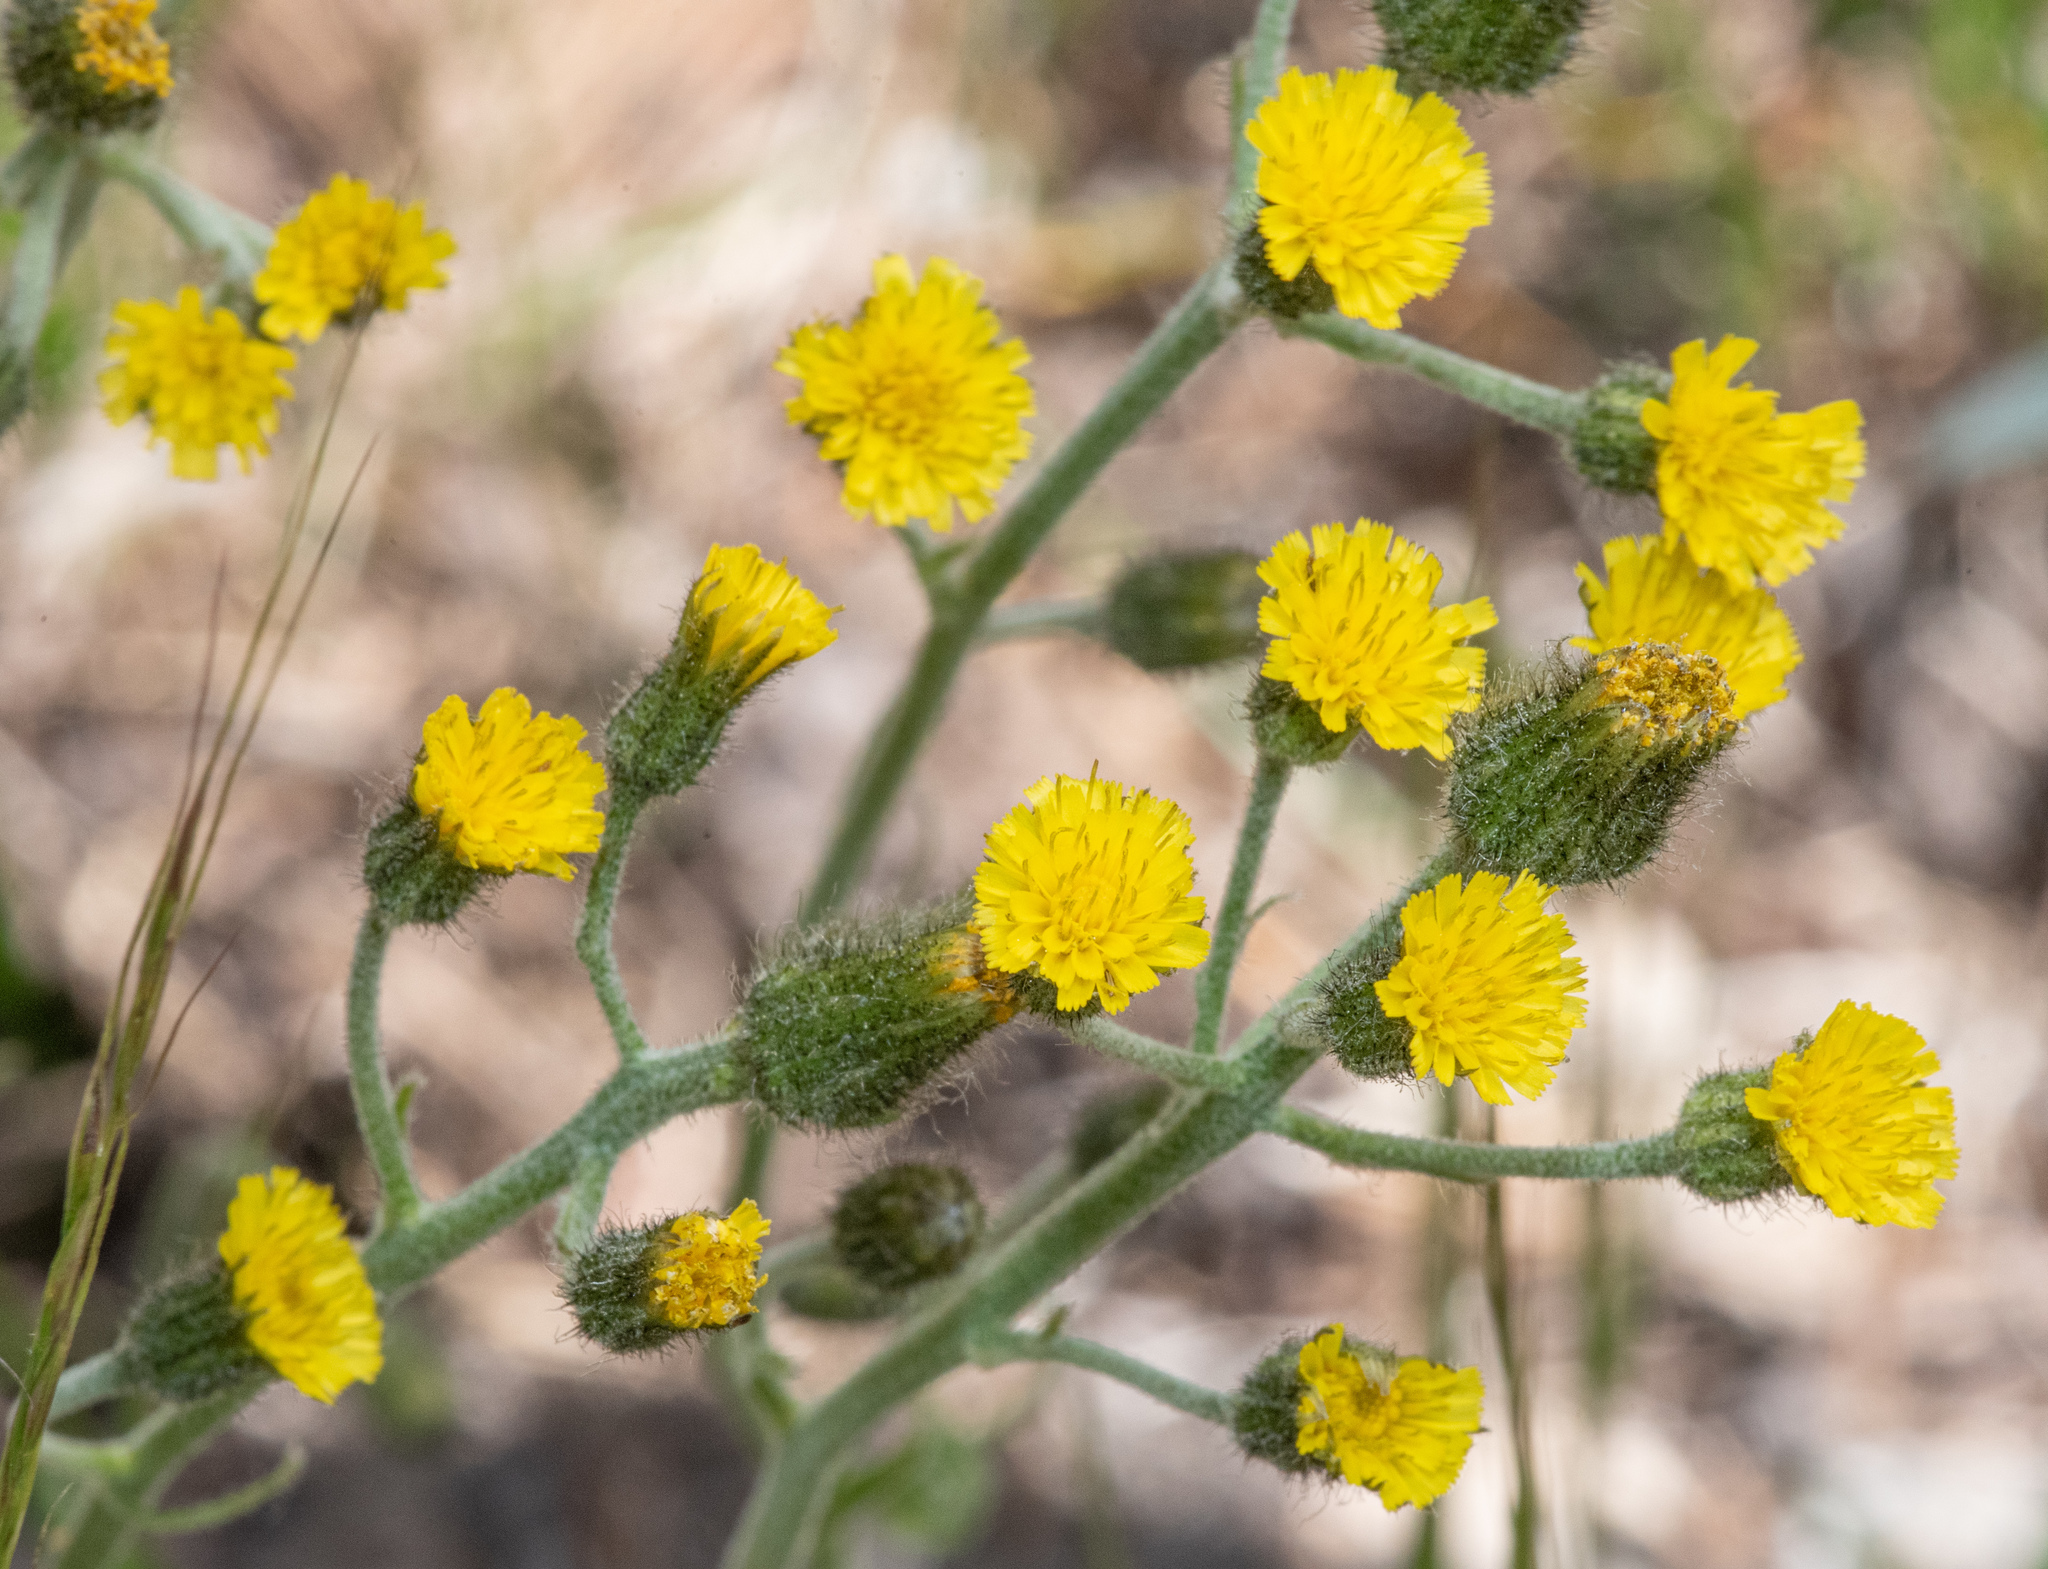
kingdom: Plantae
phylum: Tracheophyta
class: Magnoliopsida
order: Asterales
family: Asteraceae
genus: Hieracium
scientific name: Hieracium triste
